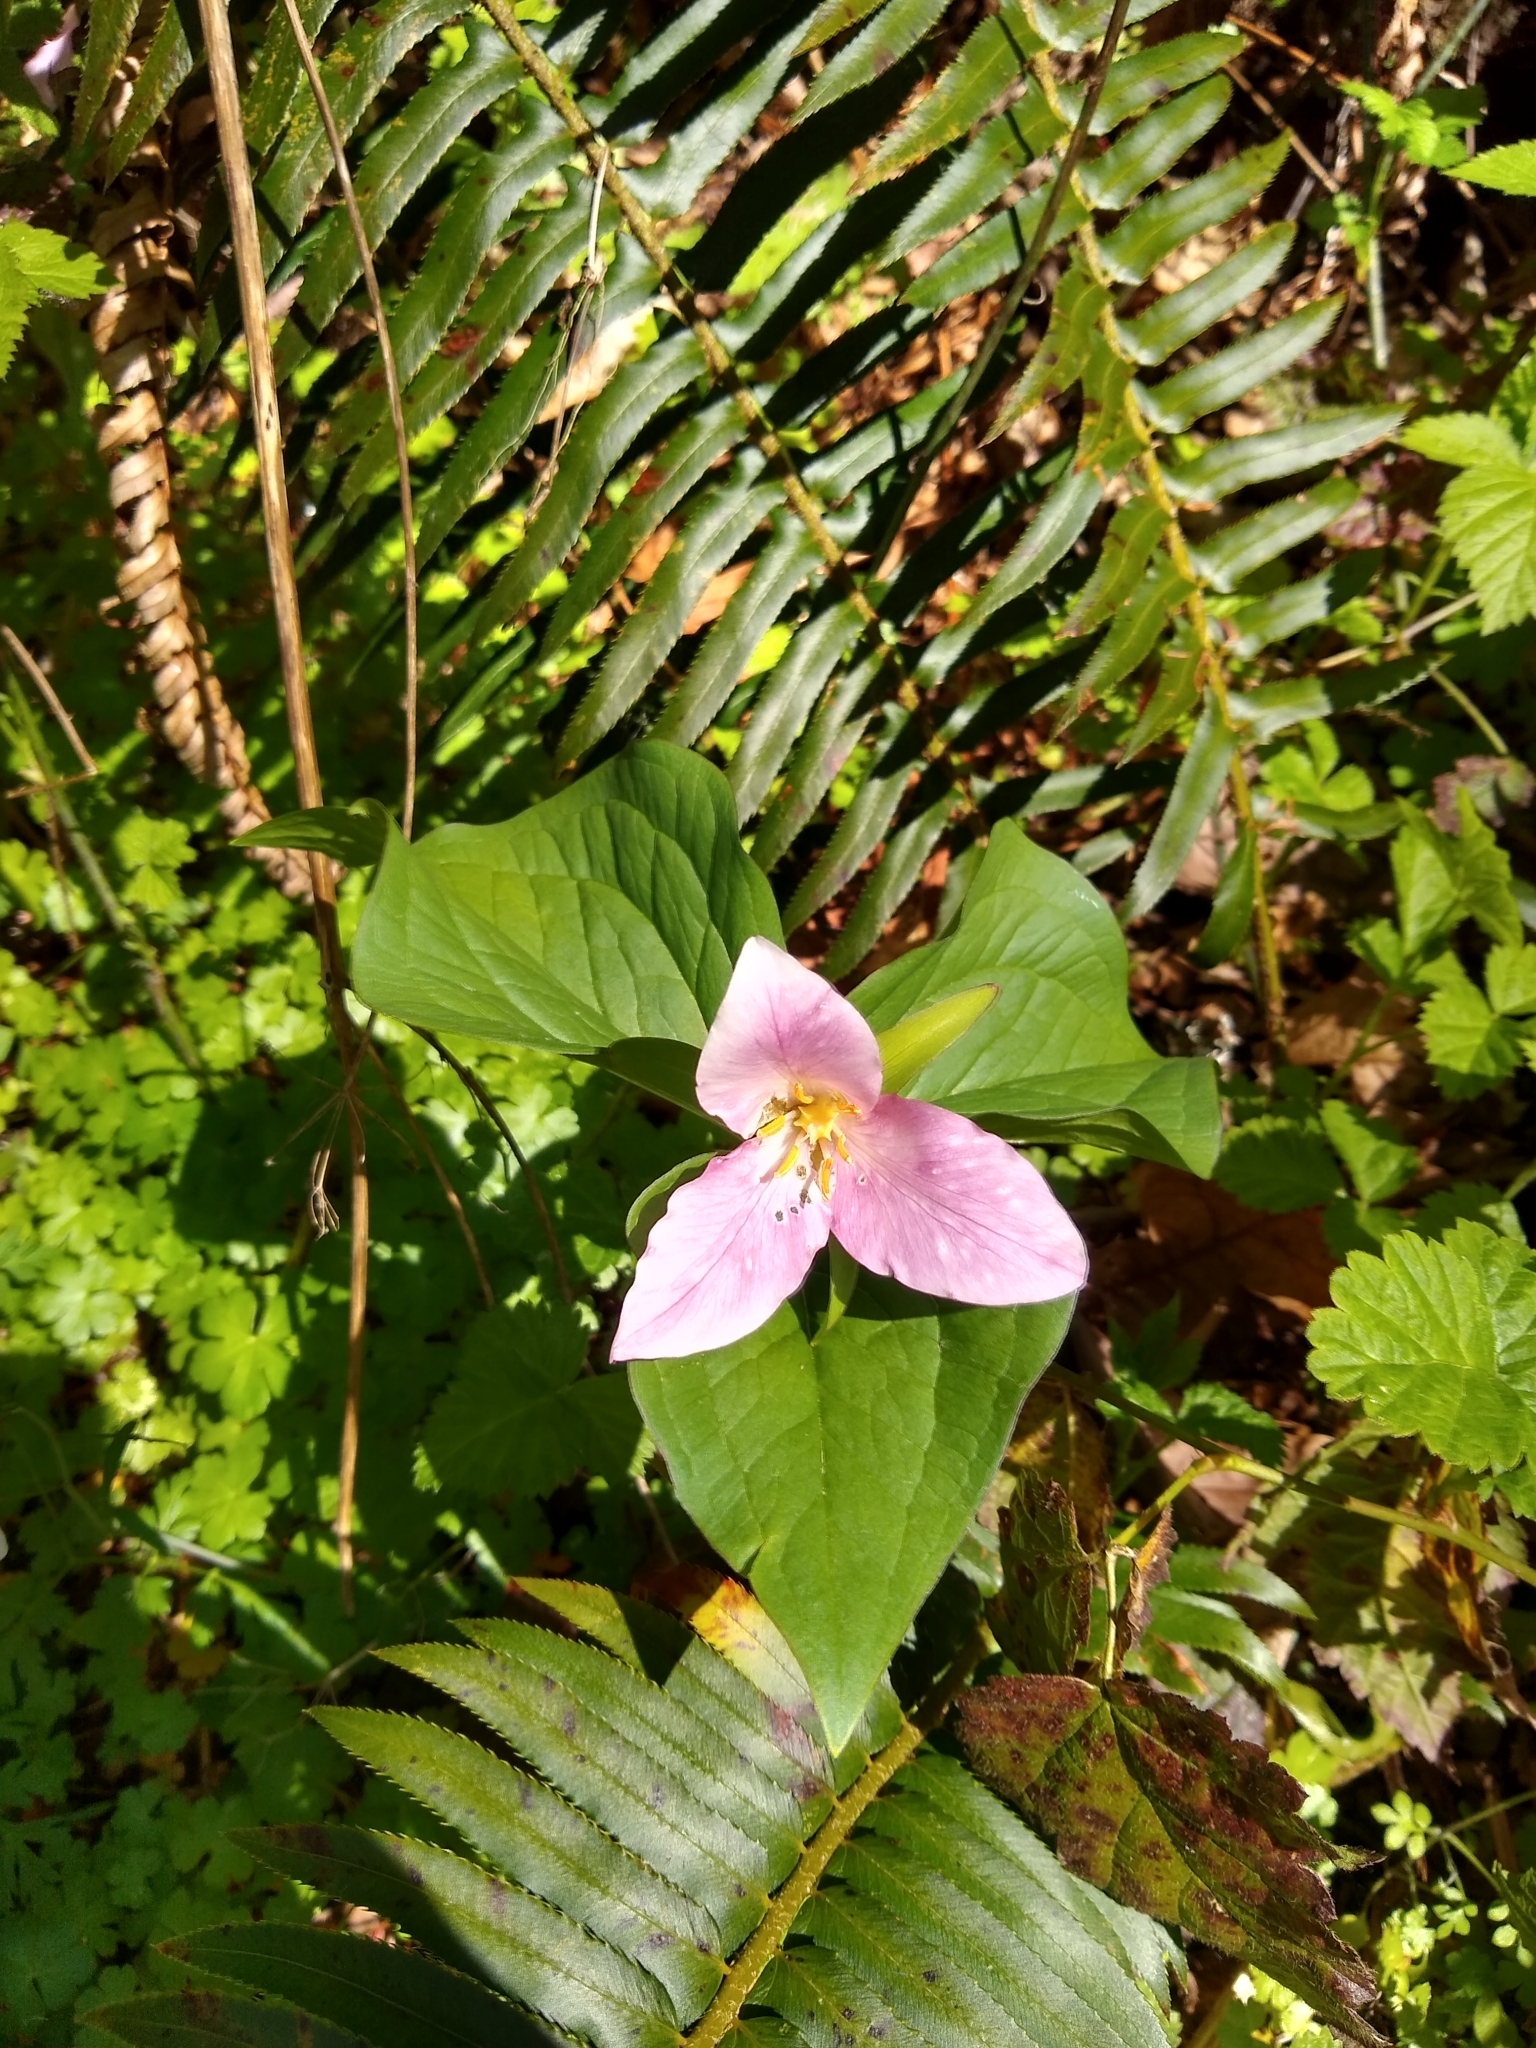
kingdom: Plantae
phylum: Tracheophyta
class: Liliopsida
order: Liliales
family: Melanthiaceae
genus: Trillium
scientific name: Trillium ovatum
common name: Pacific trillium
